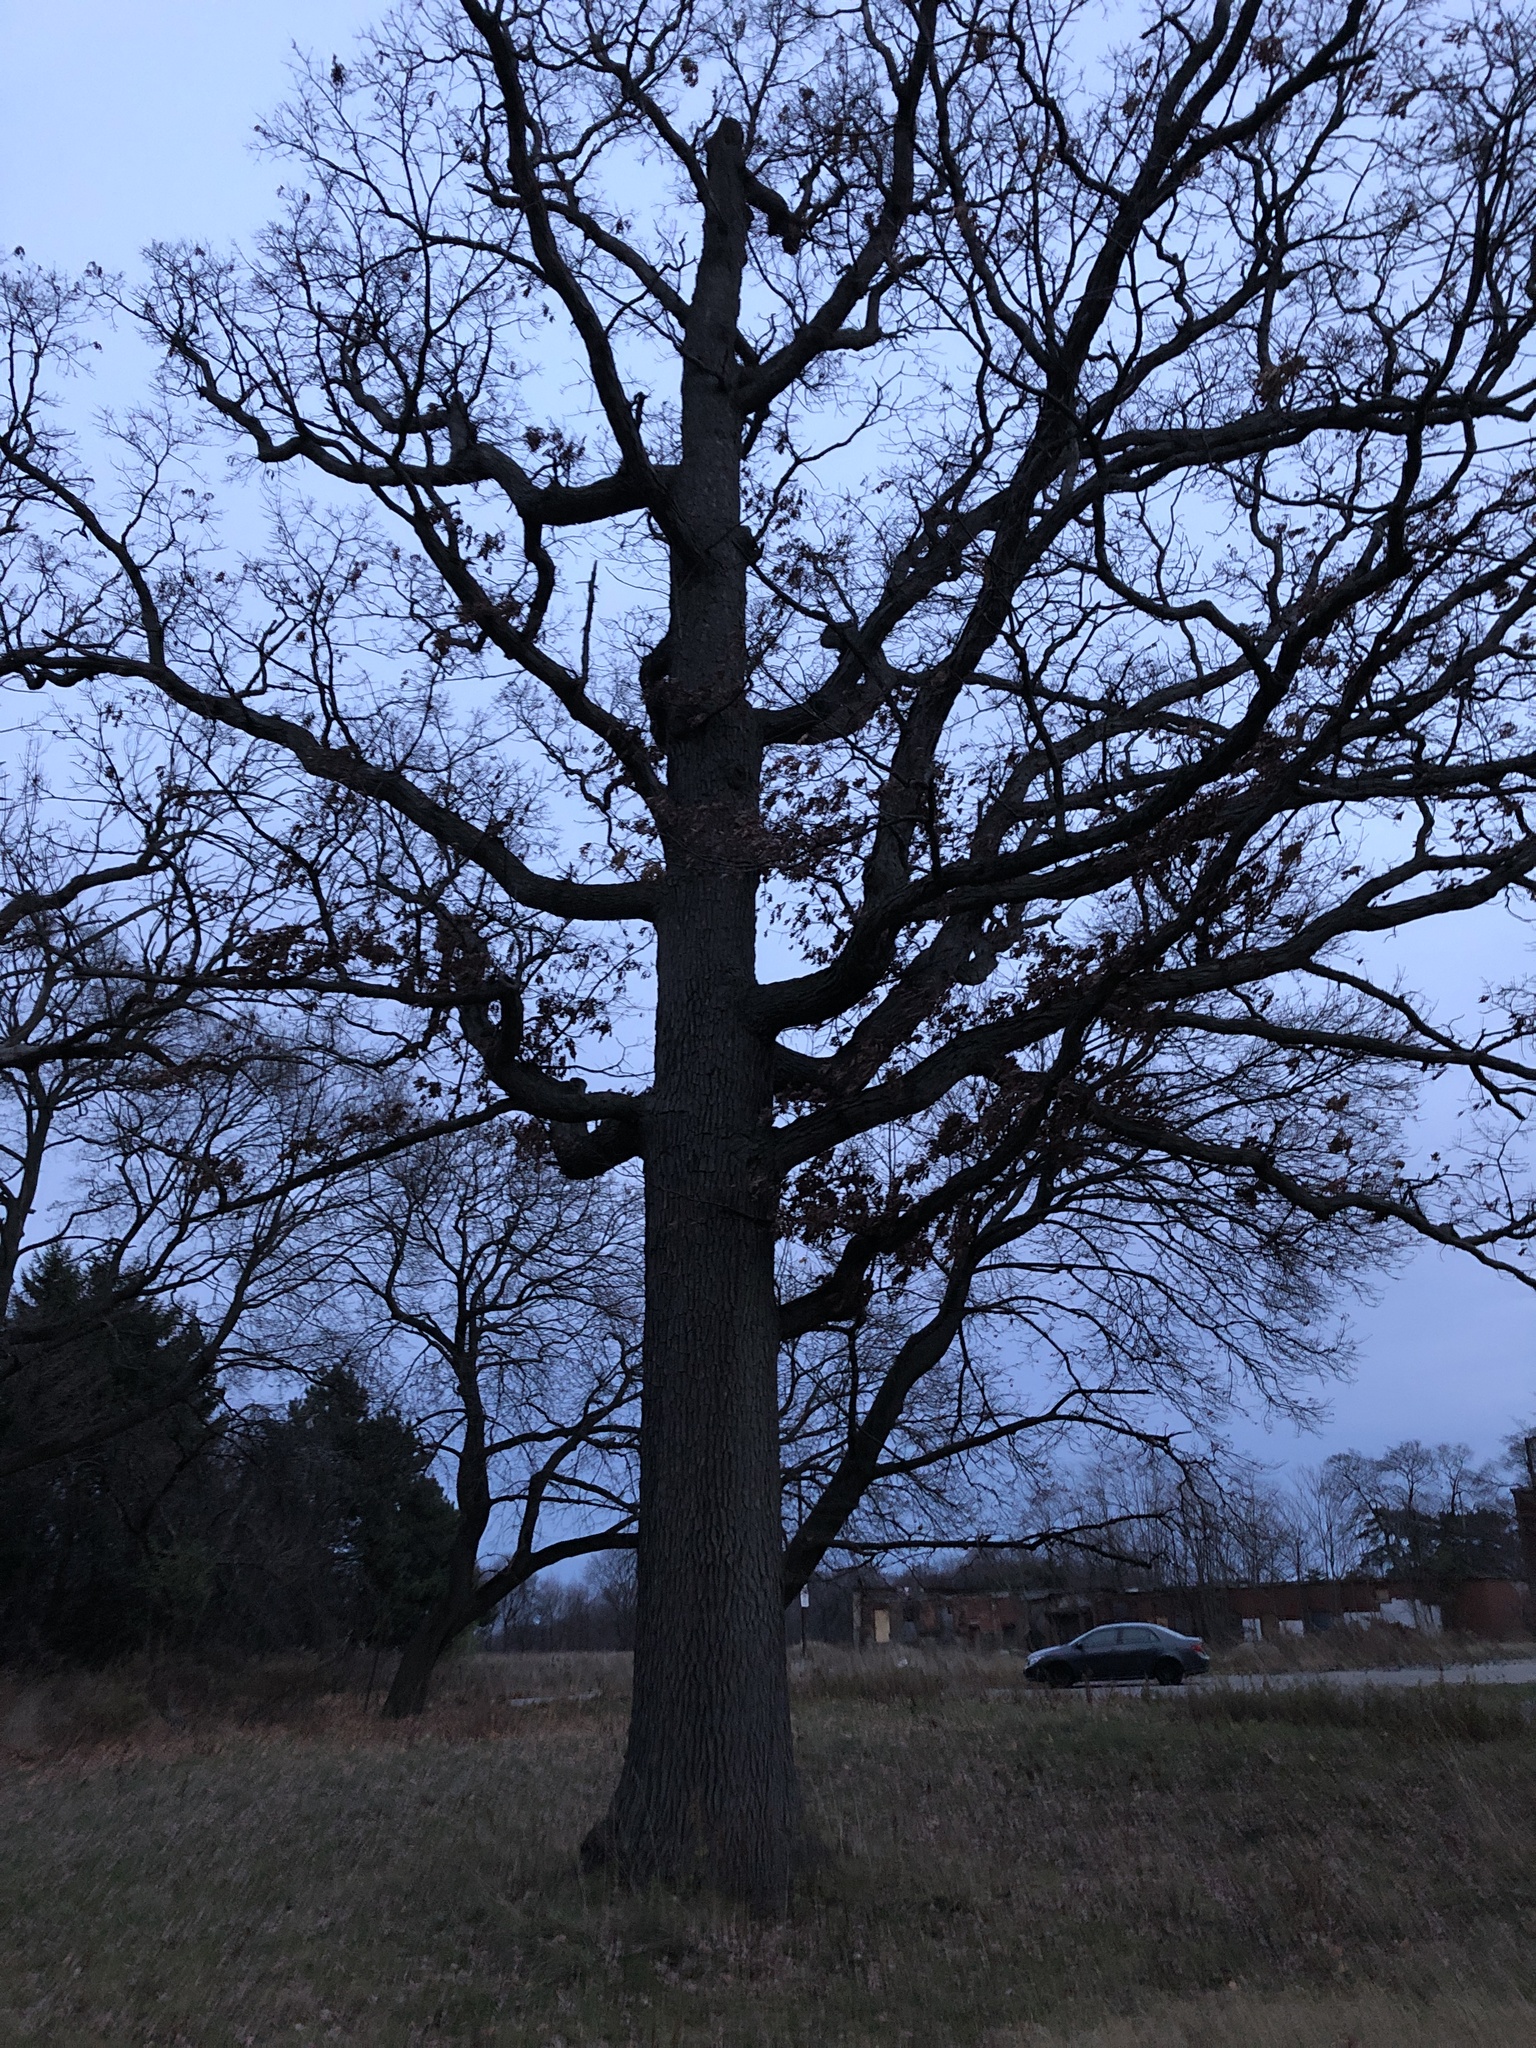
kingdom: Plantae
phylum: Tracheophyta
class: Magnoliopsida
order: Fagales
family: Fagaceae
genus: Quercus
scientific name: Quercus alba
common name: White oak
